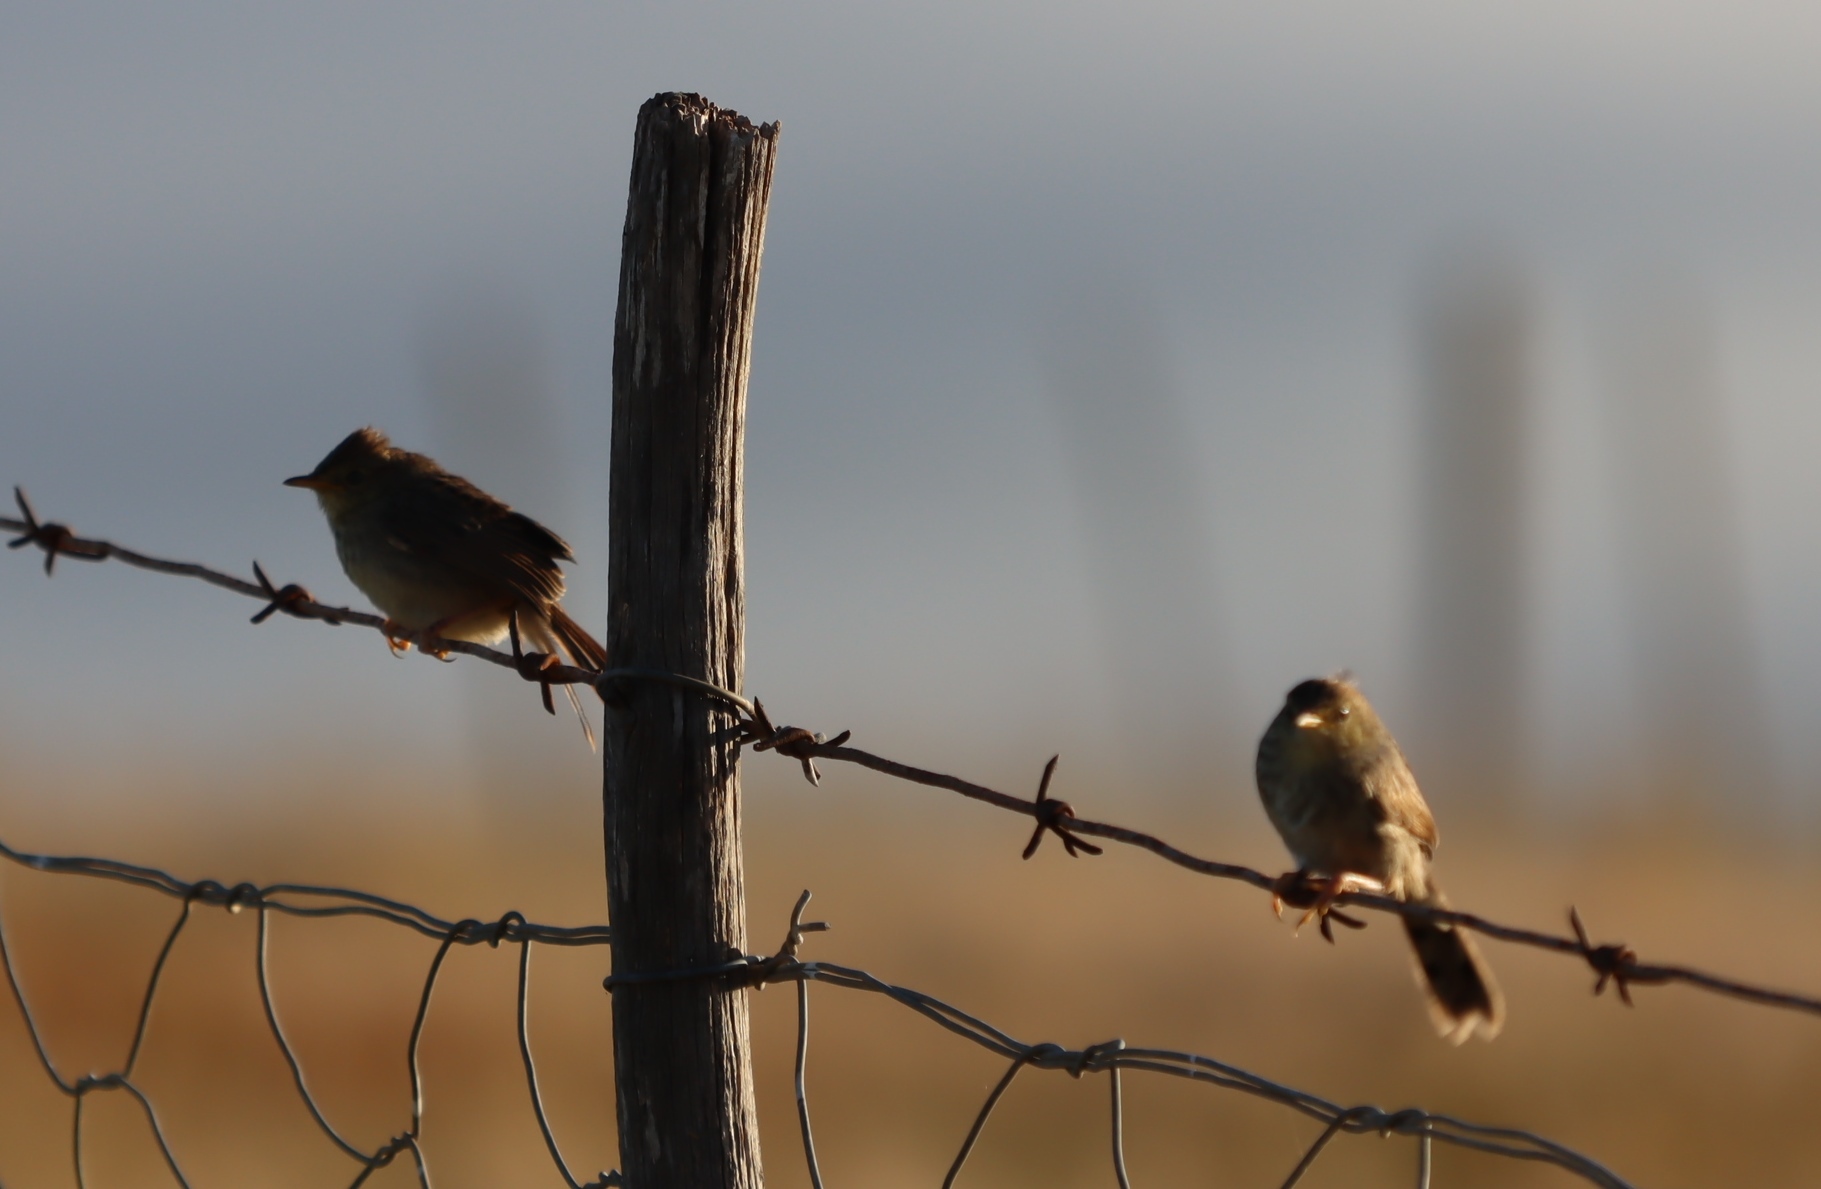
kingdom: Animalia
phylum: Chordata
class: Aves
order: Passeriformes
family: Cisticolidae
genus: Cisticola
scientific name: Cisticola subruficapilla
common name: Grey-backed cisticola
